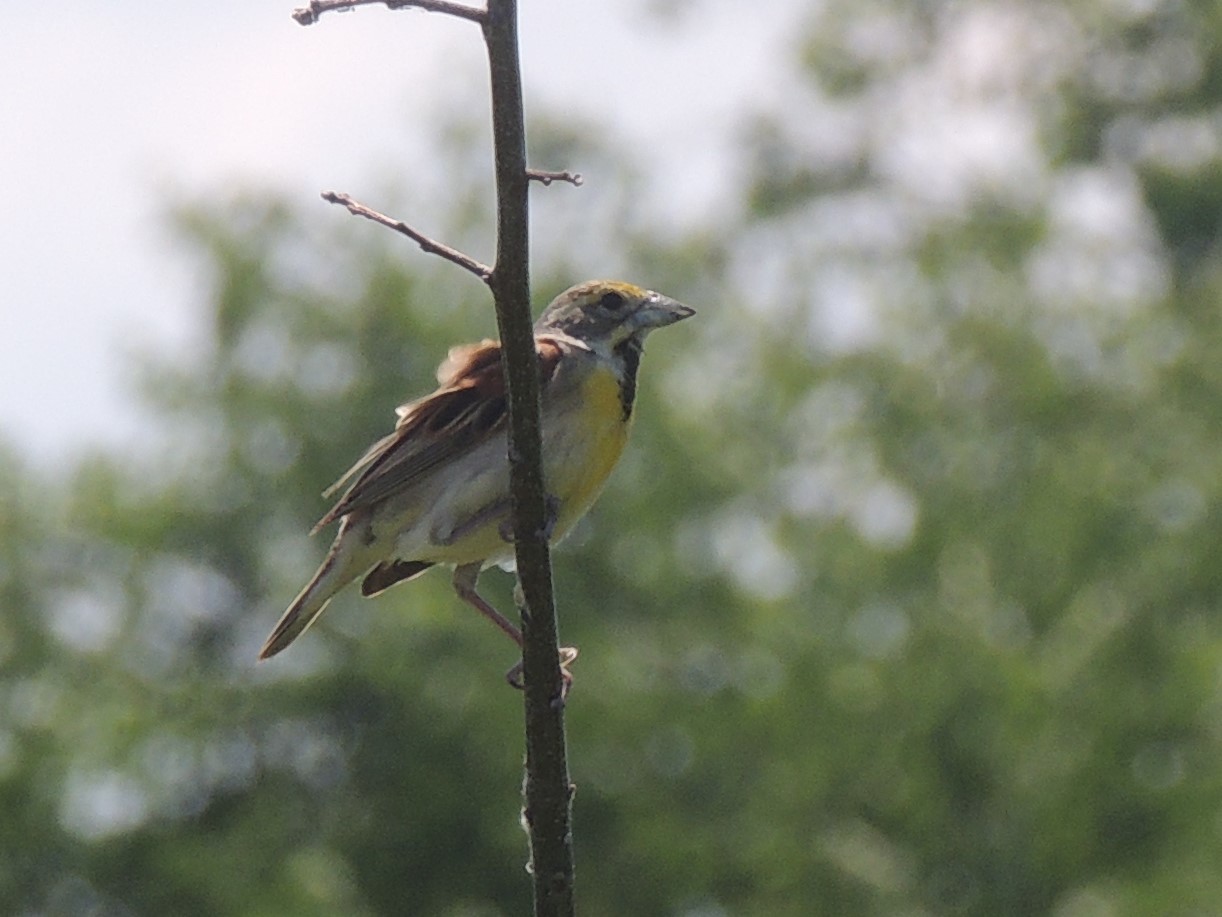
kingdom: Animalia
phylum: Chordata
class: Aves
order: Passeriformes
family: Cardinalidae
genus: Spiza
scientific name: Spiza americana
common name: Dickcissel
